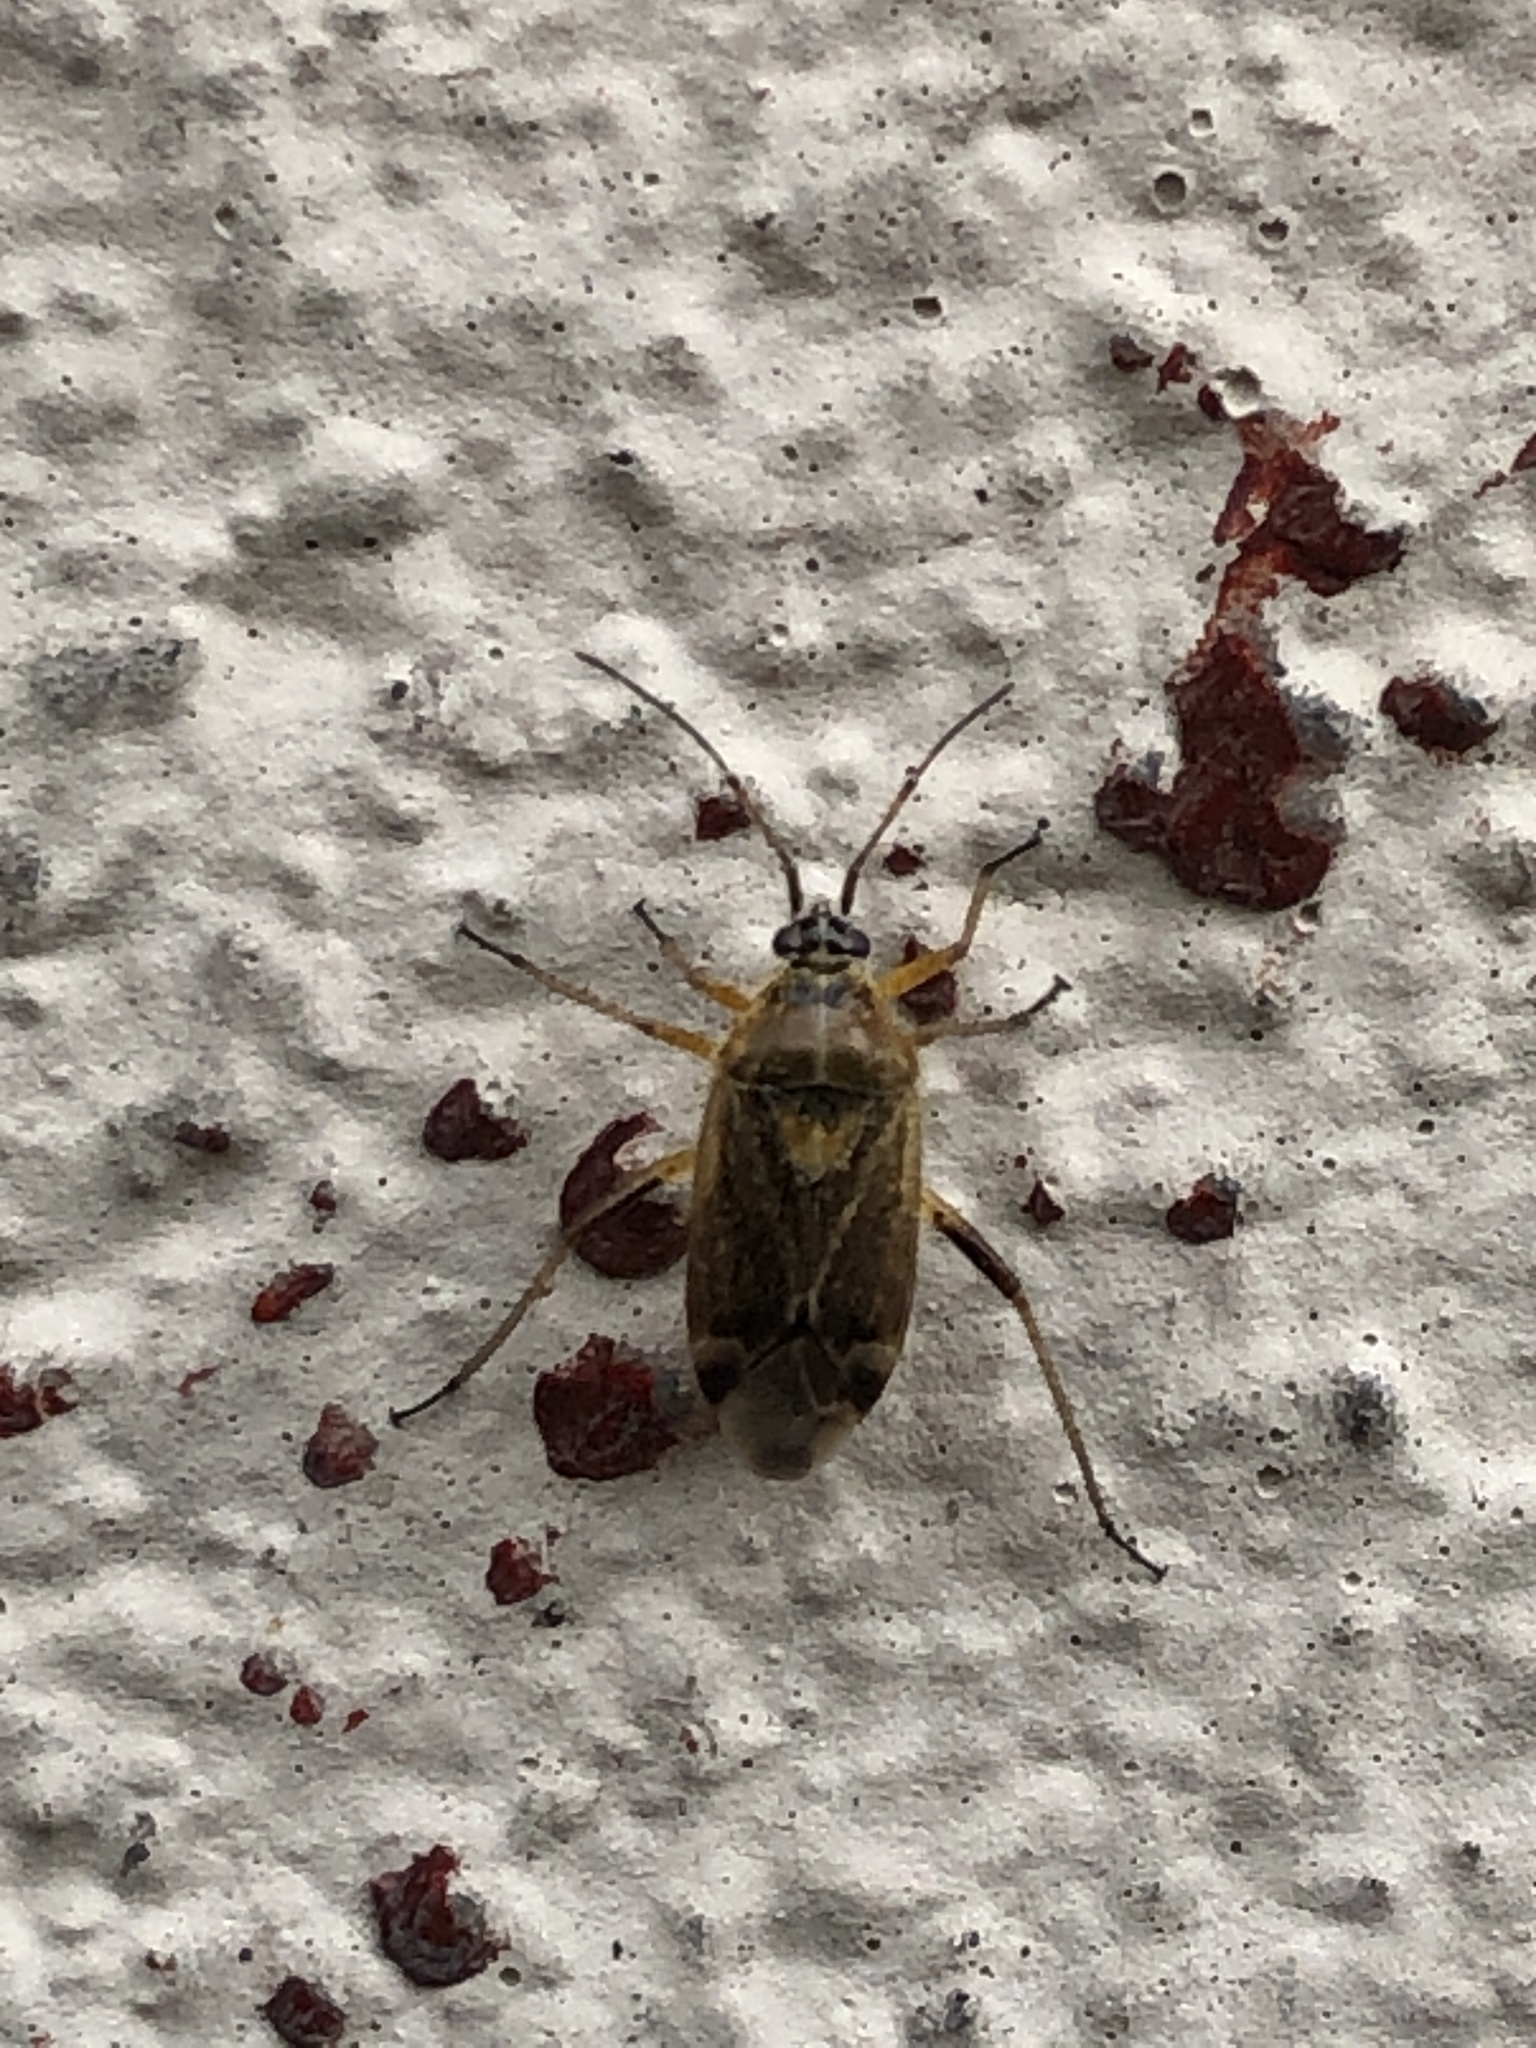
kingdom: Animalia
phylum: Arthropoda
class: Insecta
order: Hemiptera
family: Miridae
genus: Harpocera
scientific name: Harpocera thoracica
